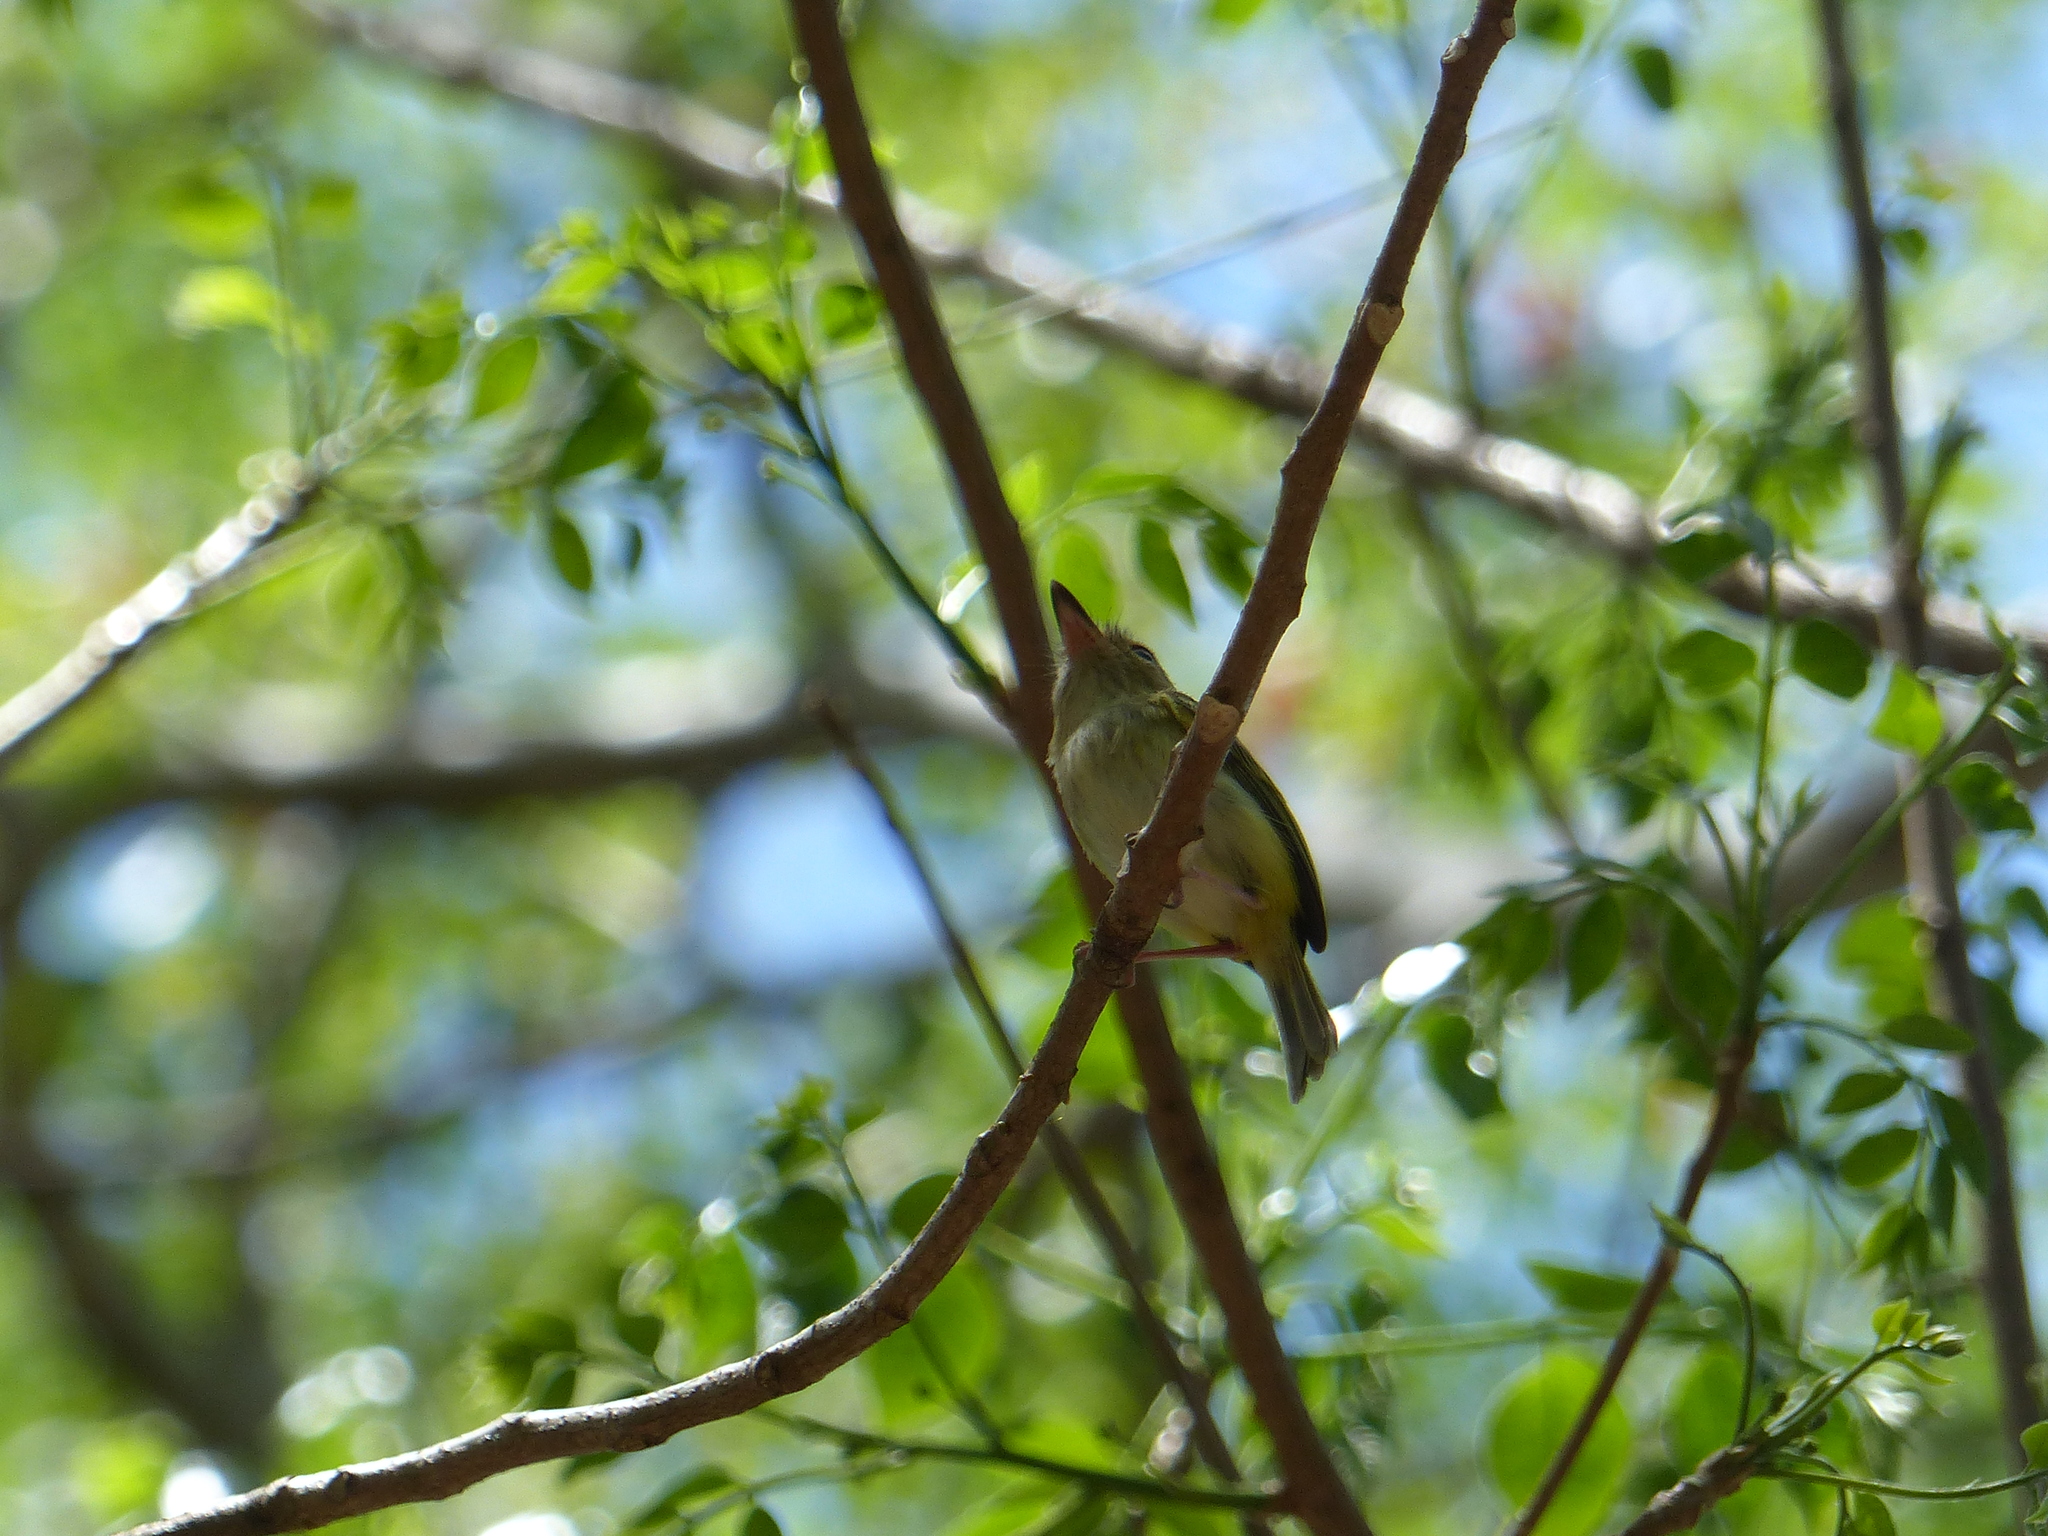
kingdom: Animalia
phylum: Chordata
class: Aves
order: Passeriformes
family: Tyrannidae
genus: Atalotriccus
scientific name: Atalotriccus pilaris
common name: Pale-eyed pygmy-tyrant
